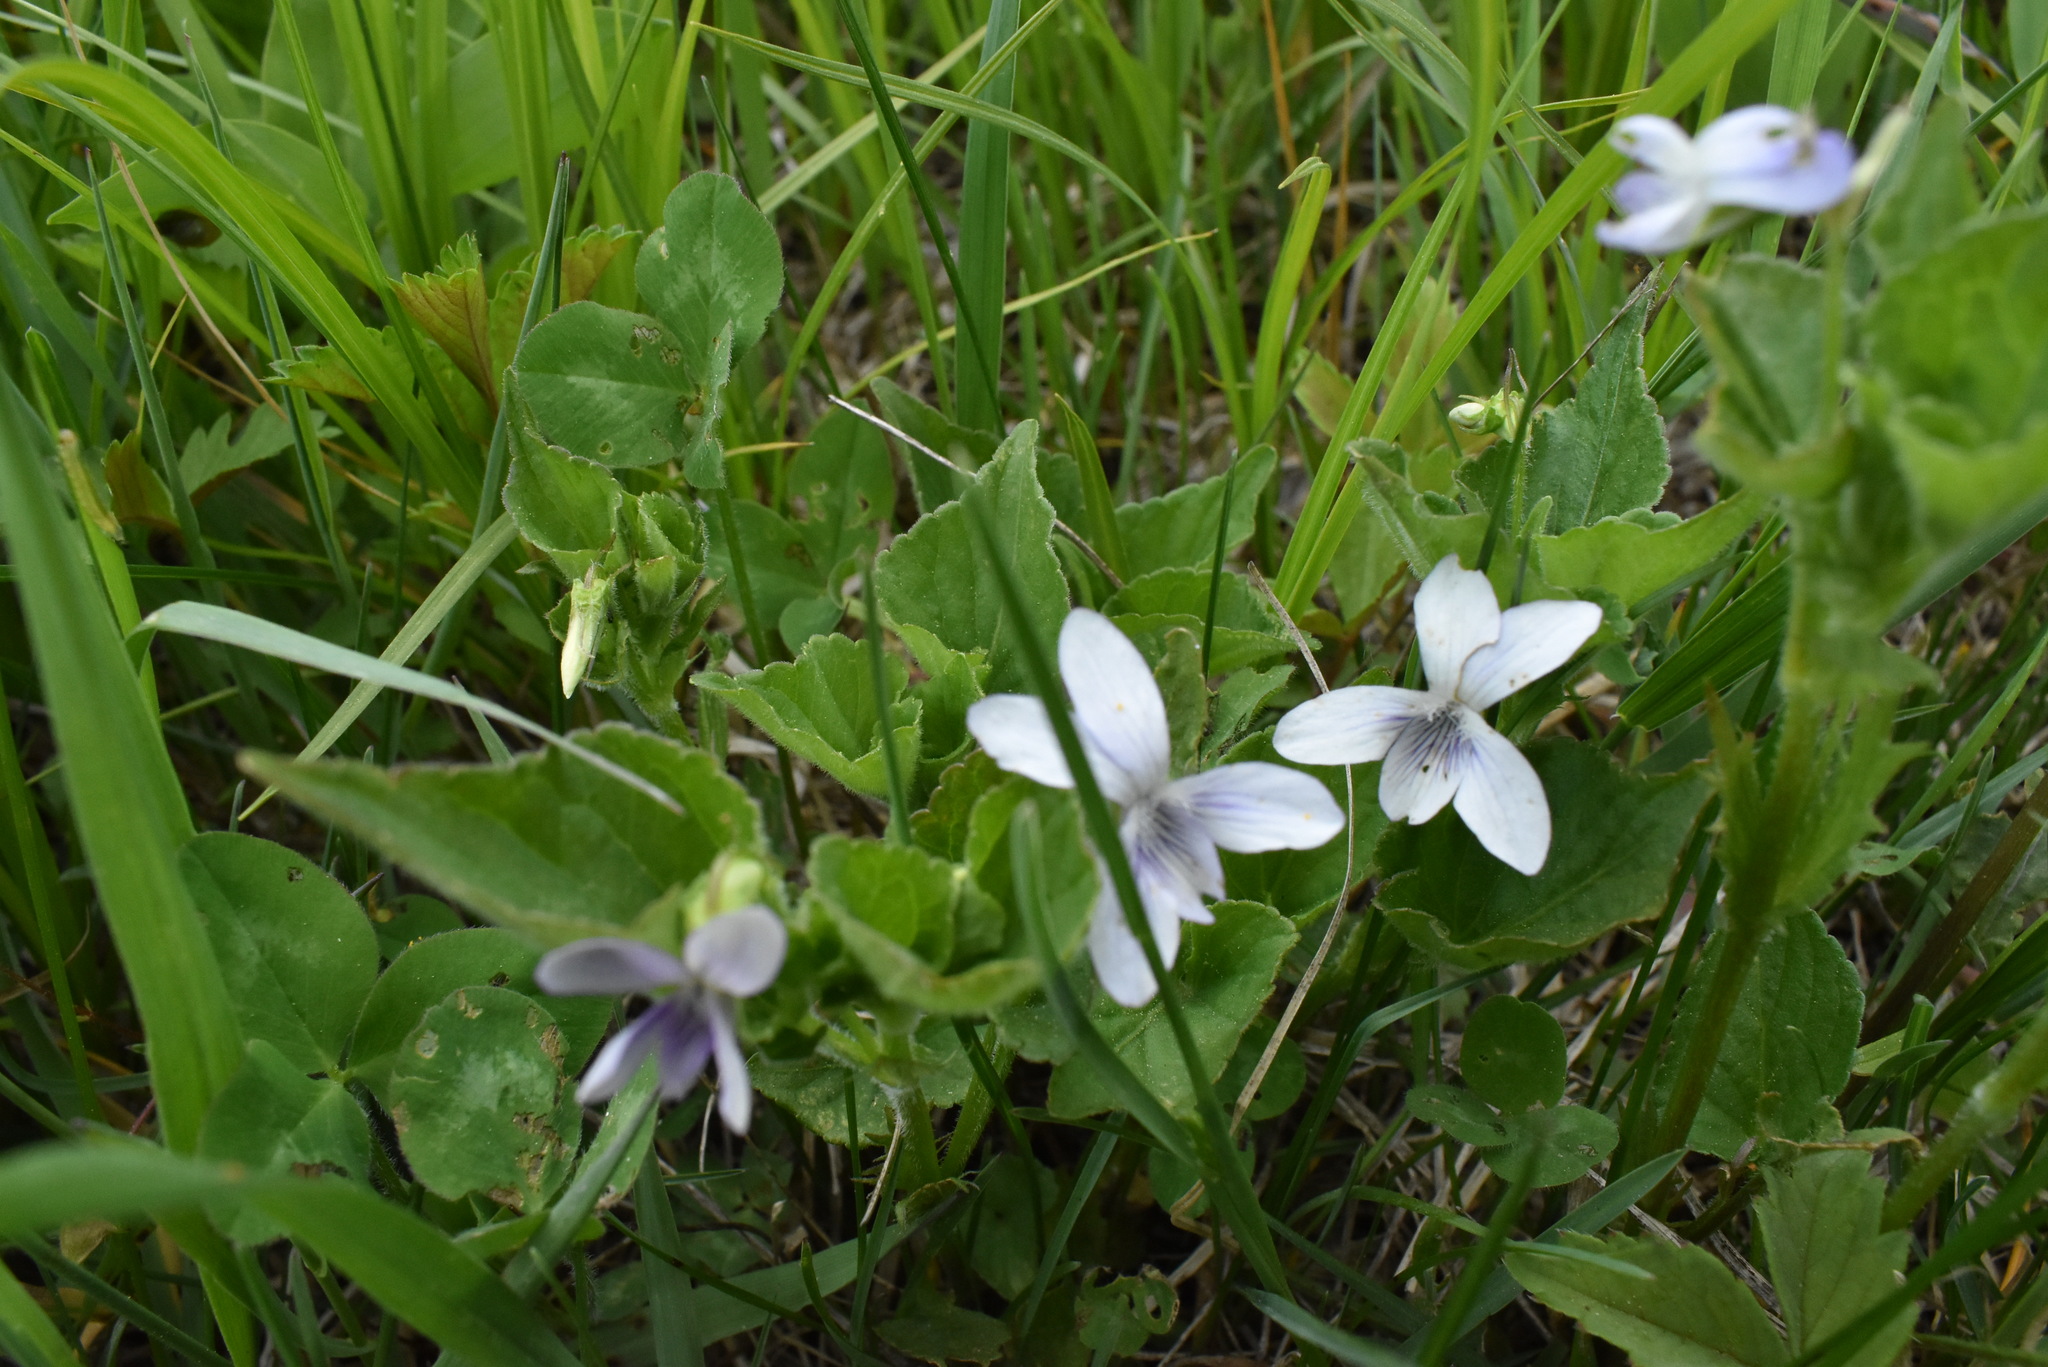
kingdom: Plantae
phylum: Tracheophyta
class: Magnoliopsida
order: Malpighiales
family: Violaceae
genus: Viola
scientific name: Viola acuminata
